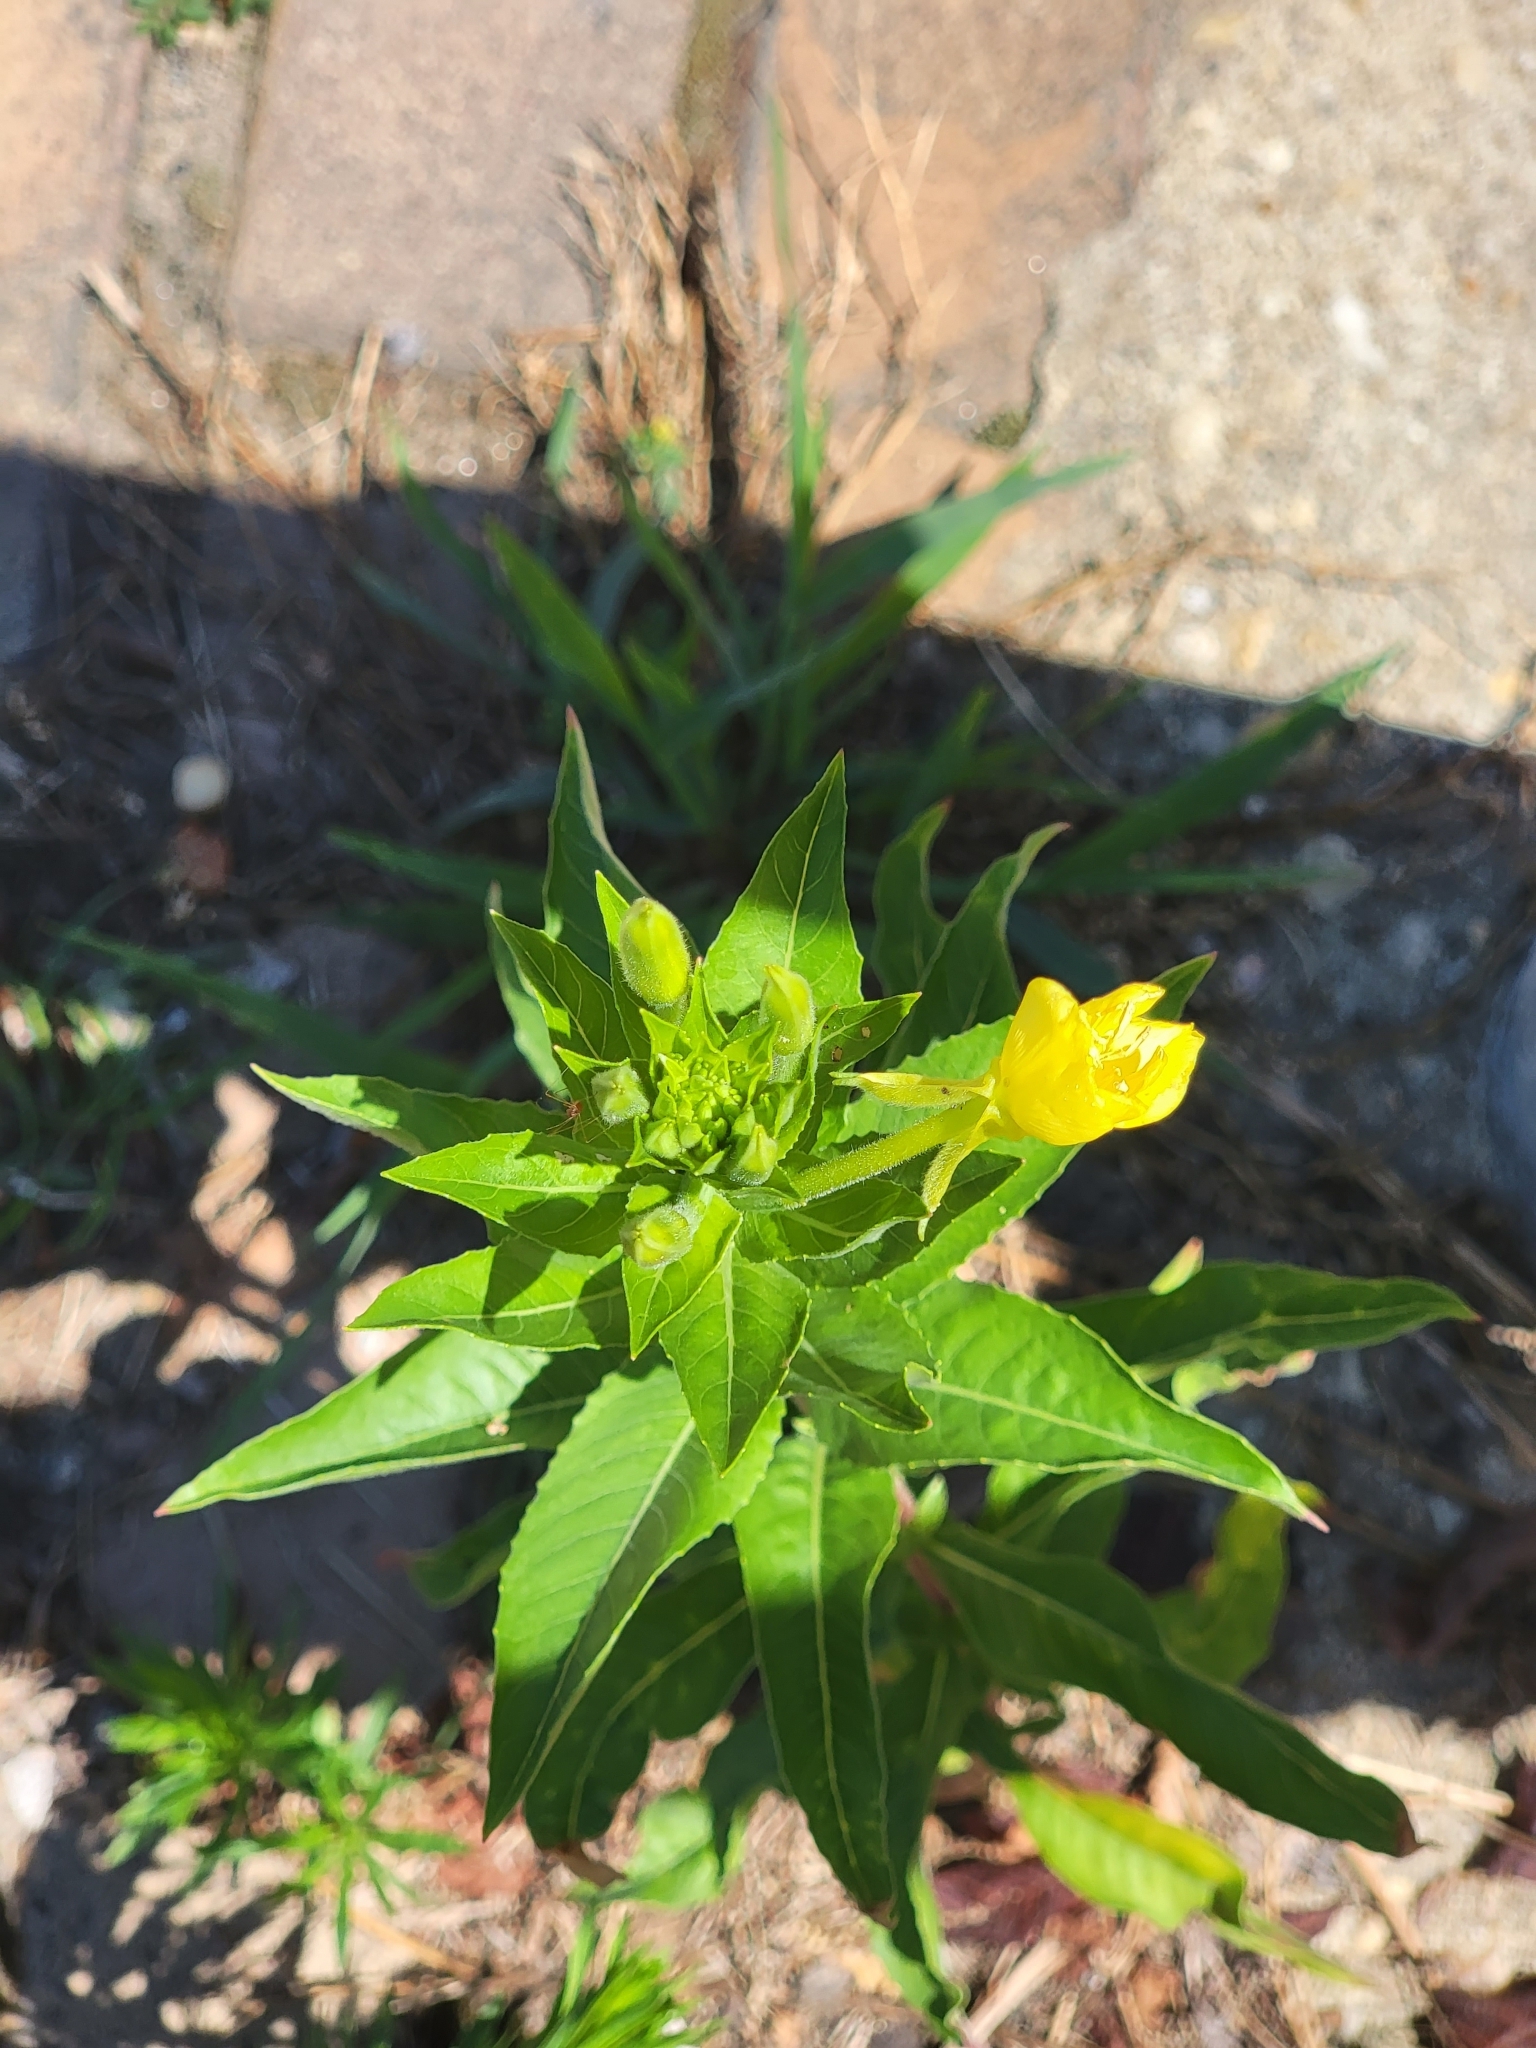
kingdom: Plantae
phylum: Tracheophyta
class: Magnoliopsida
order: Myrtales
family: Onagraceae
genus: Oenothera
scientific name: Oenothera biennis
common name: Common evening-primrose
